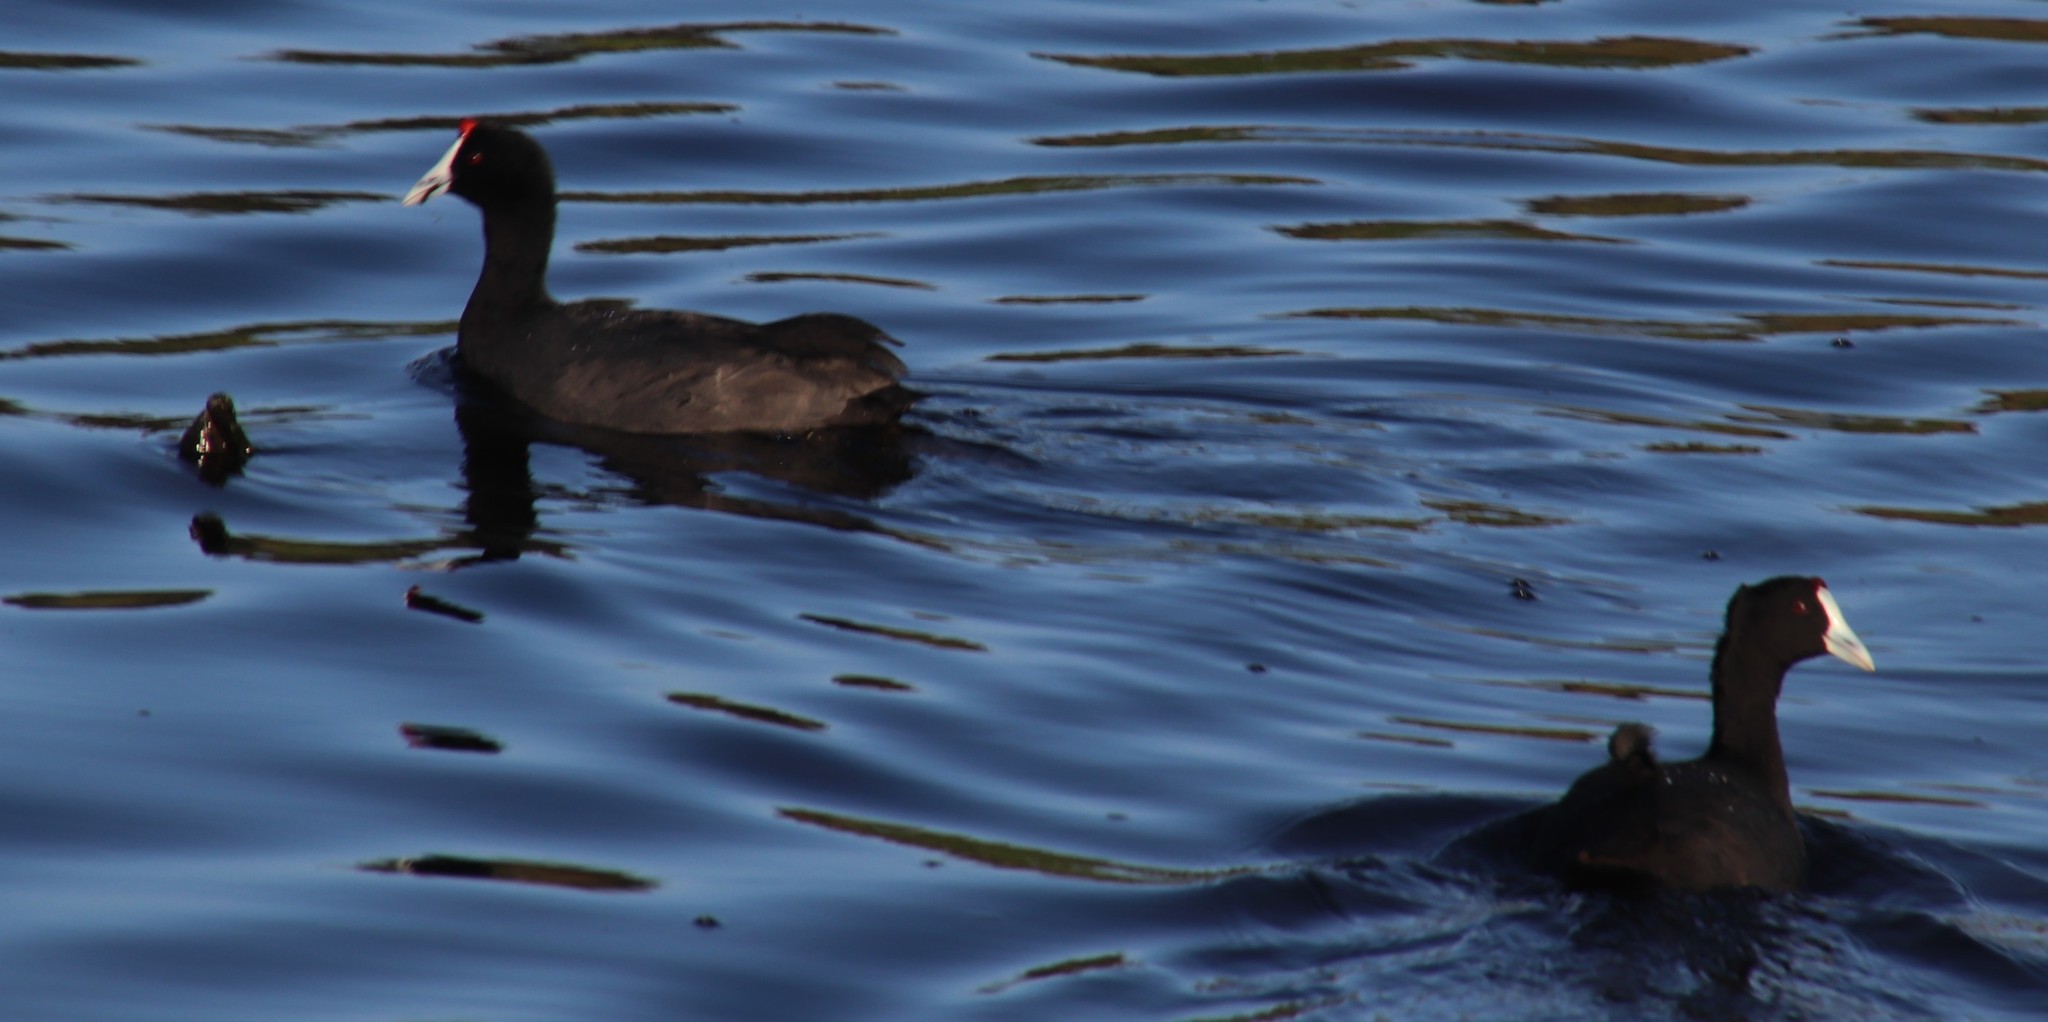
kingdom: Animalia
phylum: Chordata
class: Aves
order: Gruiformes
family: Rallidae
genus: Fulica
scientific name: Fulica cristata
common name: Red-knobbed coot
